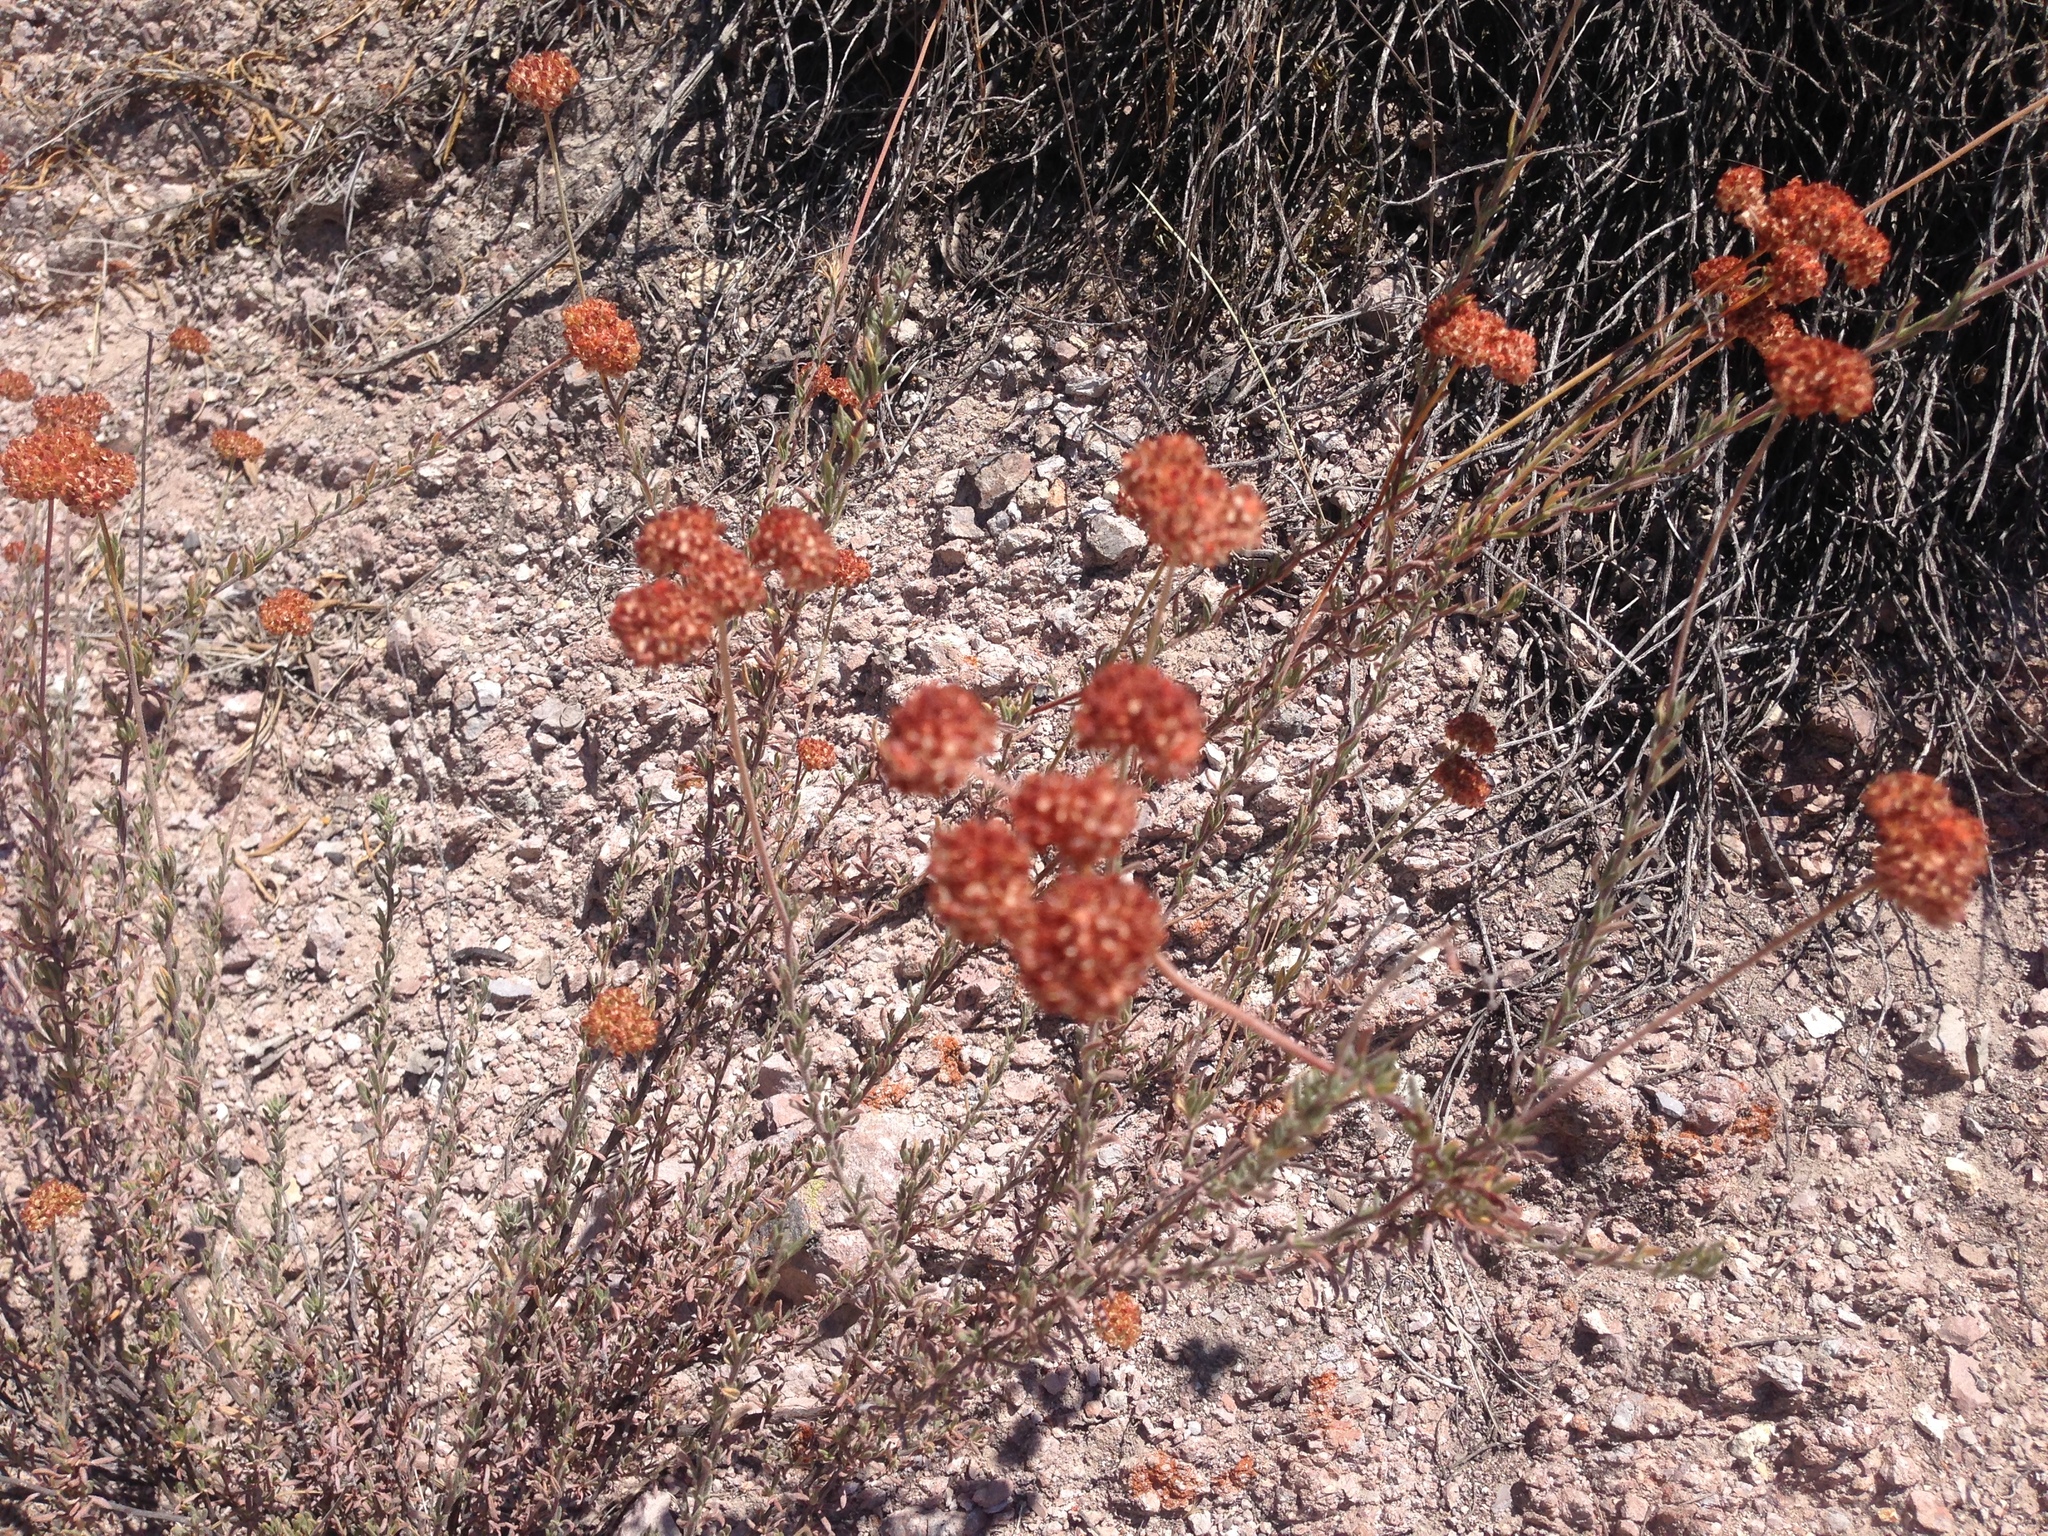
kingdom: Plantae
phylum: Tracheophyta
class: Magnoliopsida
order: Caryophyllales
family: Polygonaceae
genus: Eriogonum
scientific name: Eriogonum fasciculatum
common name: California wild buckwheat
